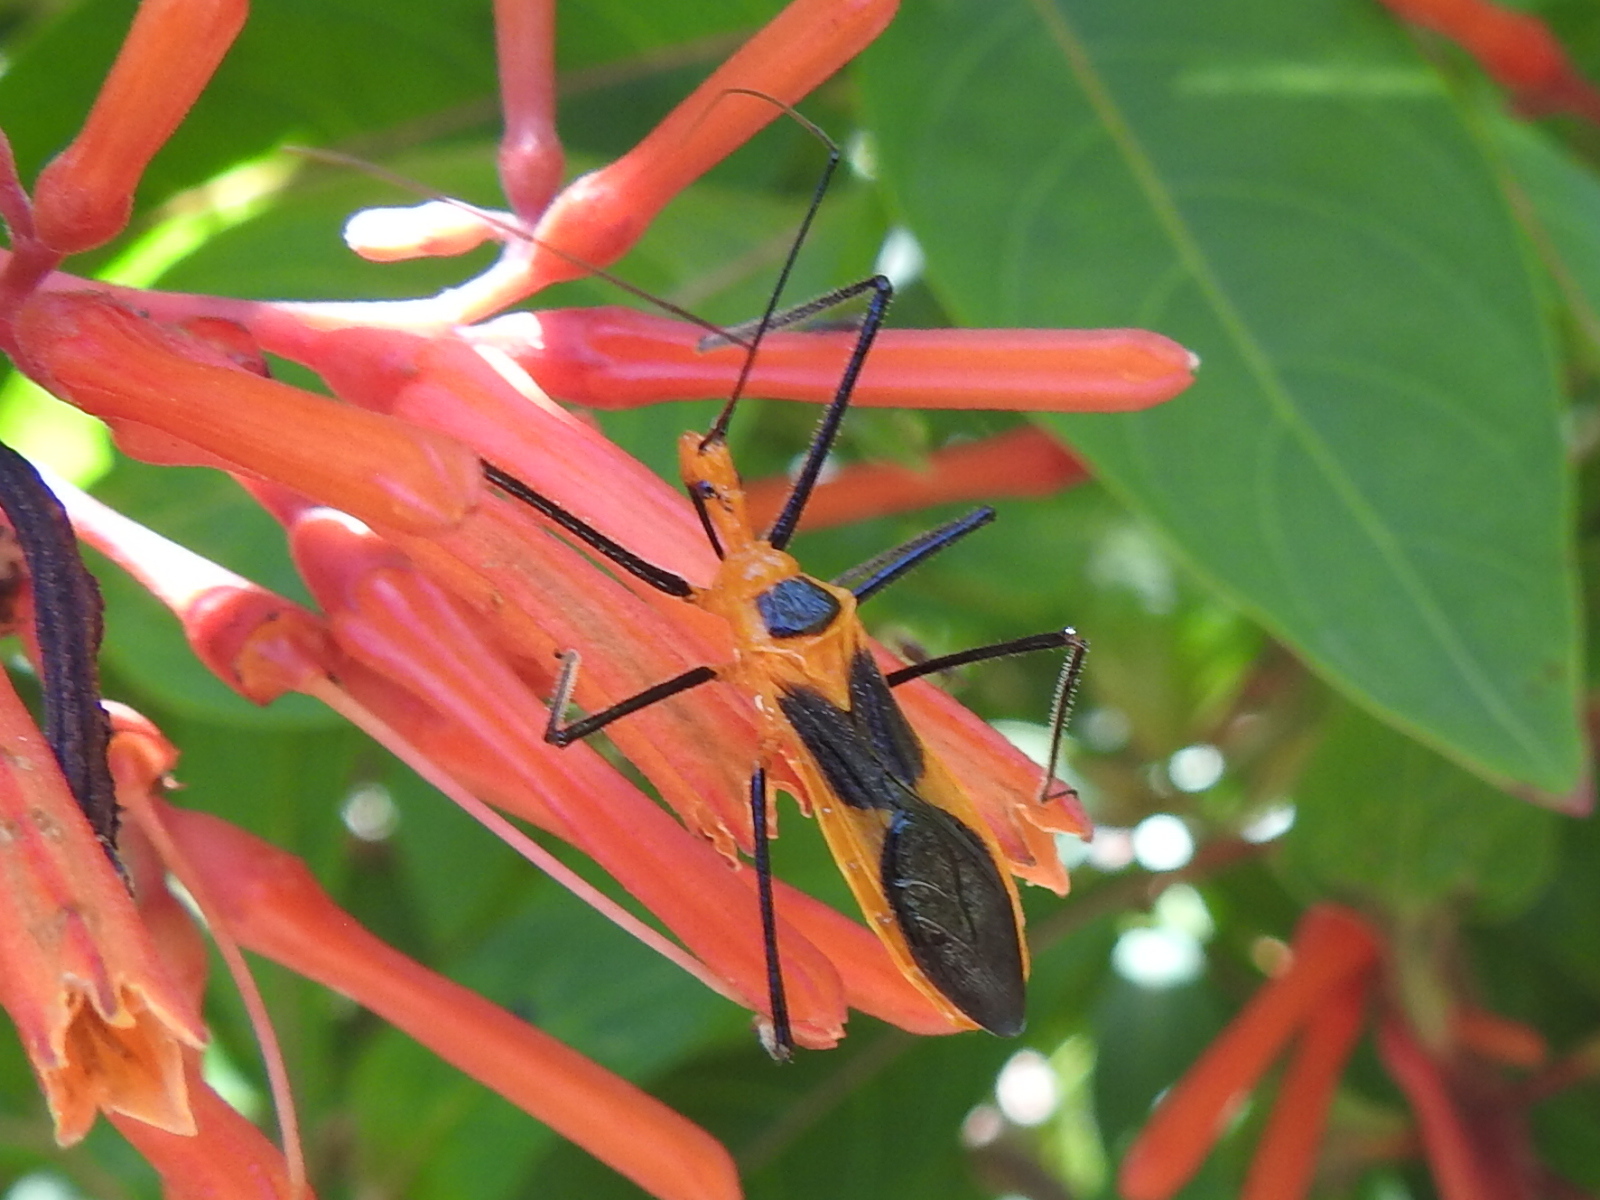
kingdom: Animalia
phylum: Arthropoda
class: Insecta
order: Hemiptera
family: Reduviidae
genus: Zelus
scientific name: Zelus longipes
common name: Milkweed assassin bug
